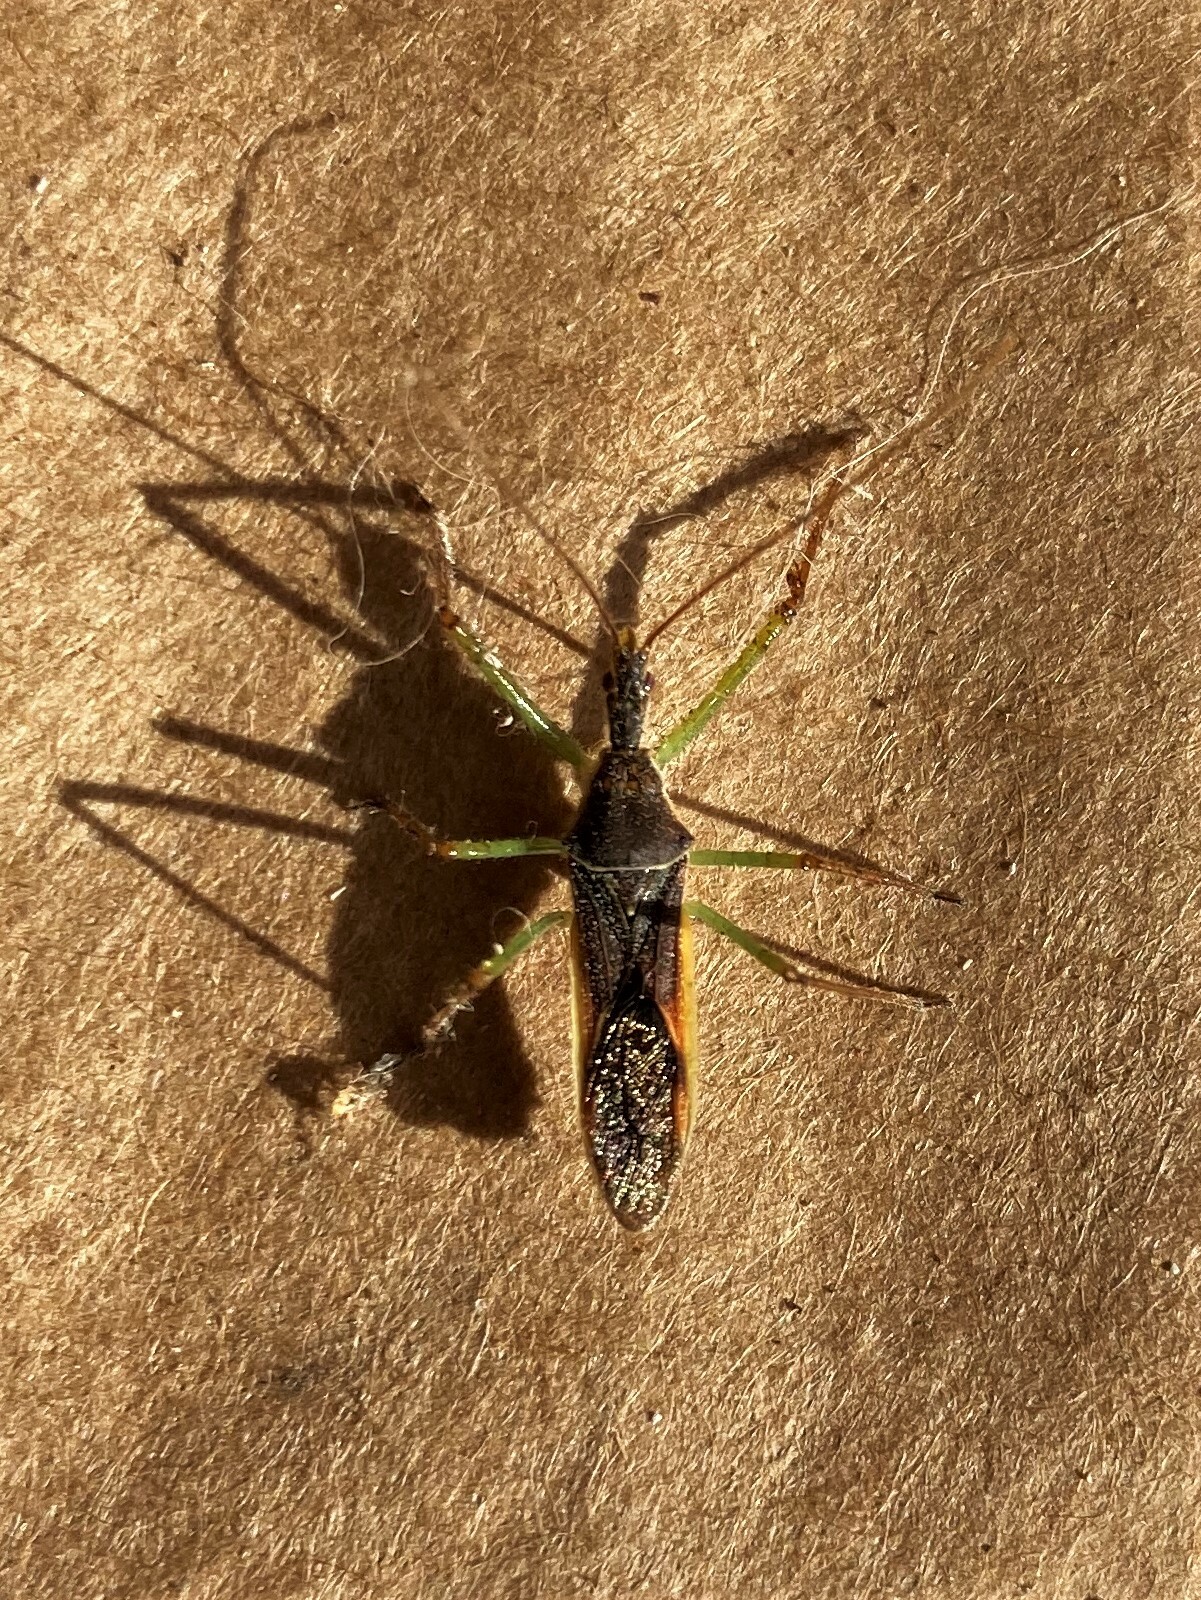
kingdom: Animalia
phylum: Arthropoda
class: Insecta
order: Hemiptera
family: Reduviidae
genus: Zelus
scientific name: Zelus renardii
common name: Assassin bug
